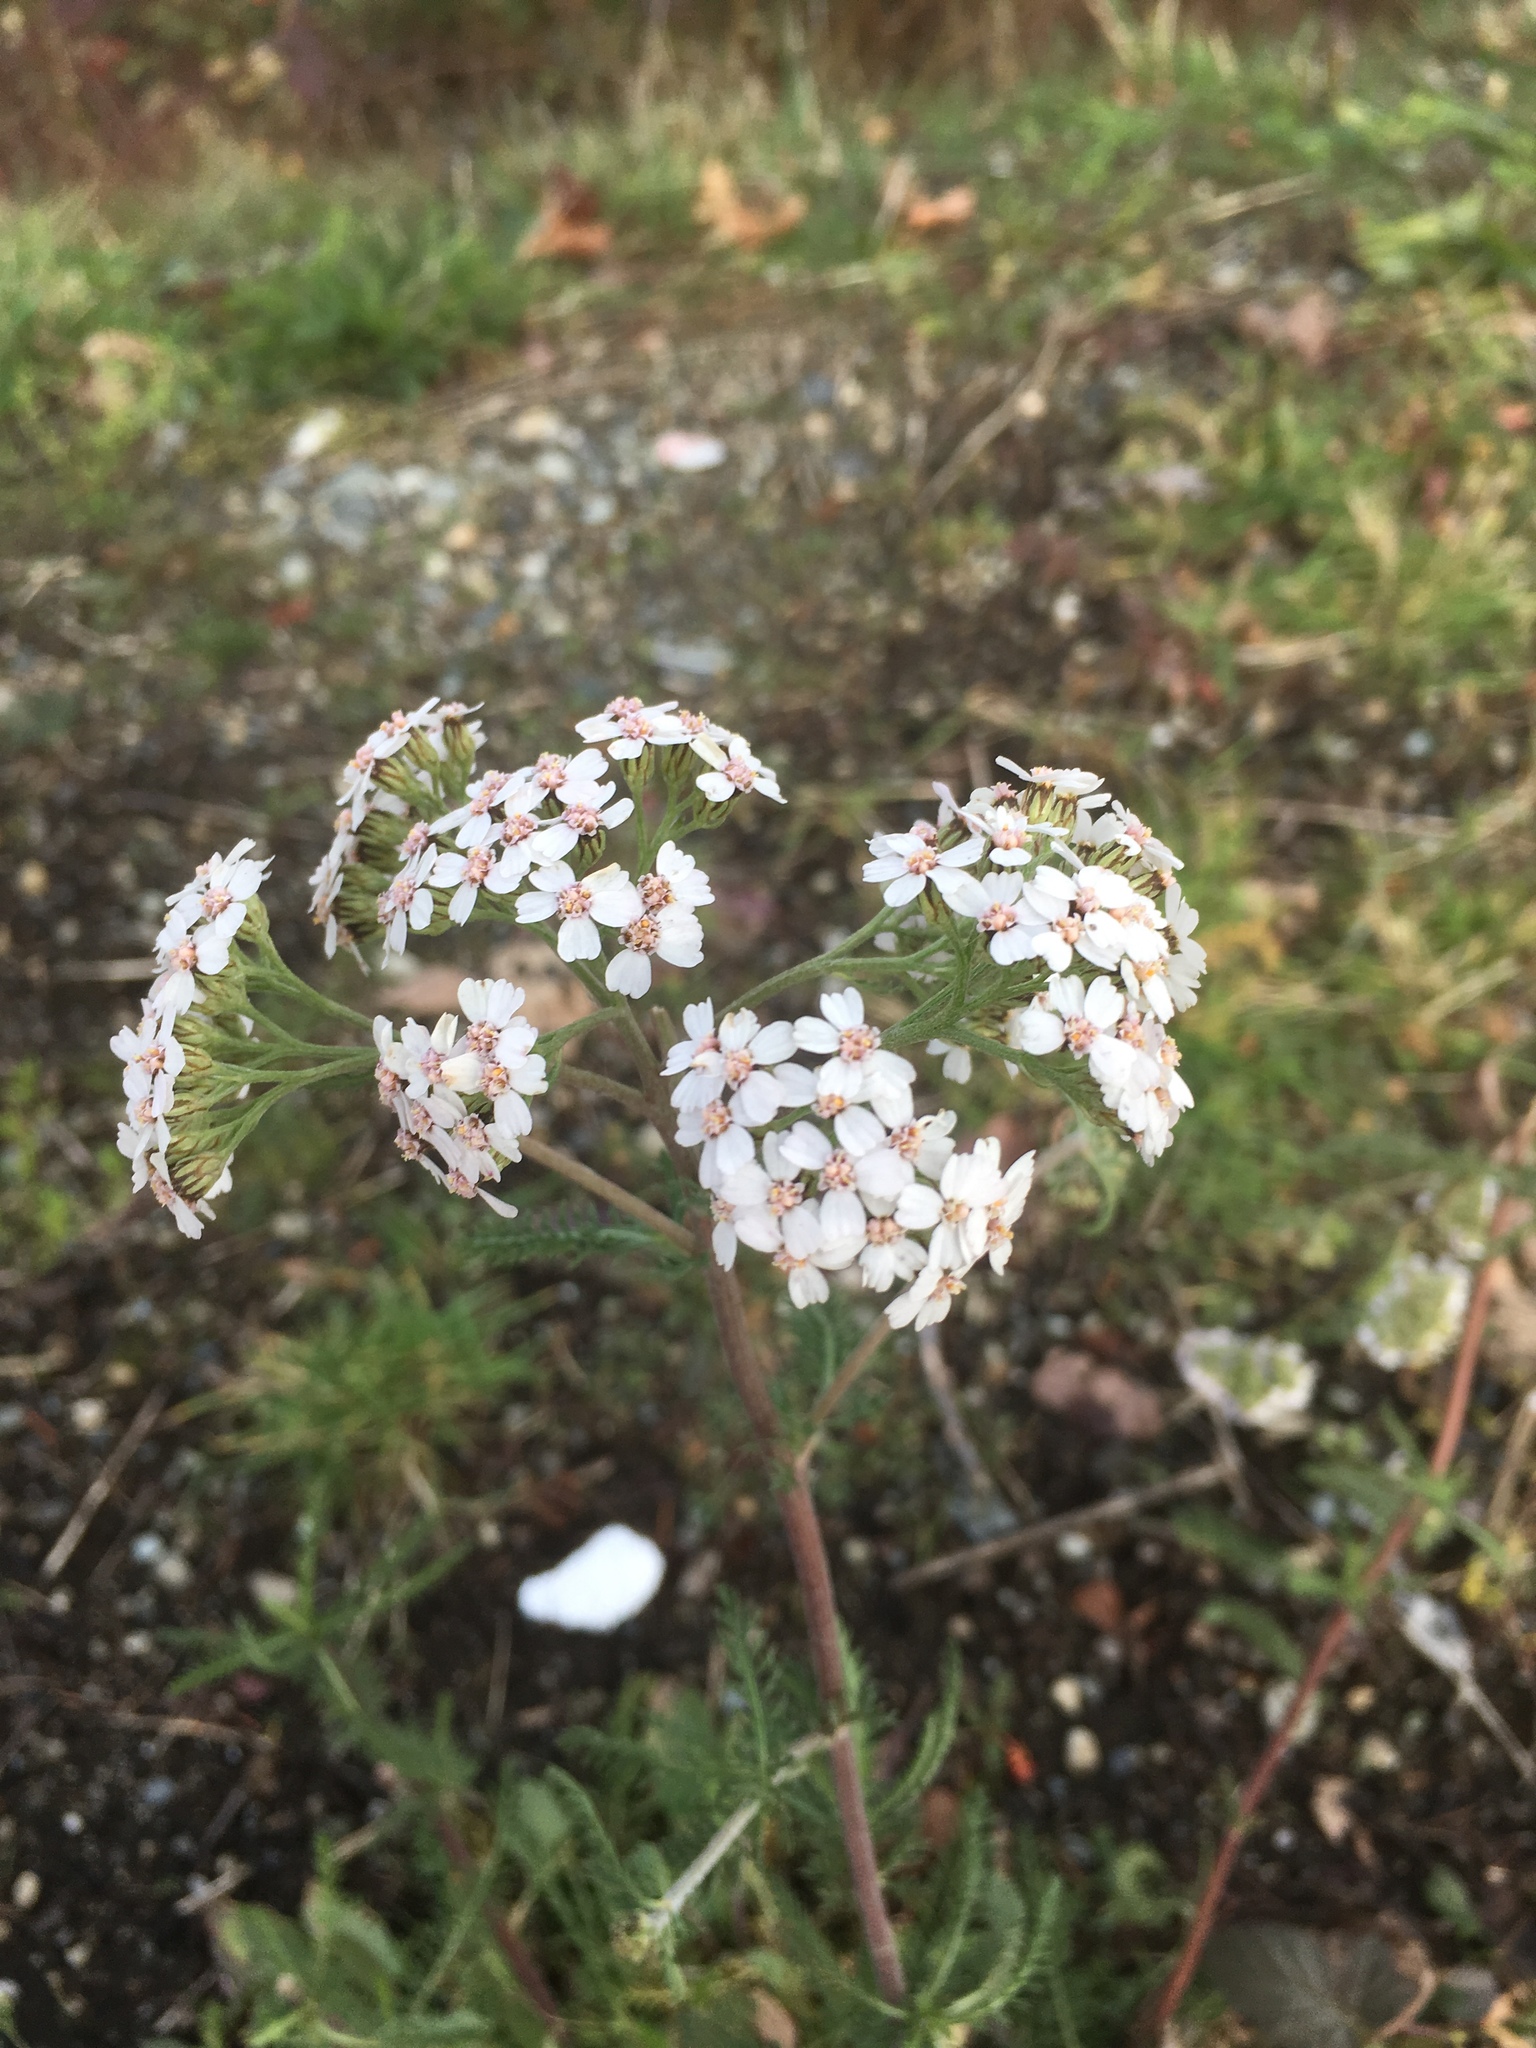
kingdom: Plantae
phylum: Tracheophyta
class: Magnoliopsida
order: Asterales
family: Asteraceae
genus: Achillea
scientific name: Achillea millefolium
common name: Yarrow
